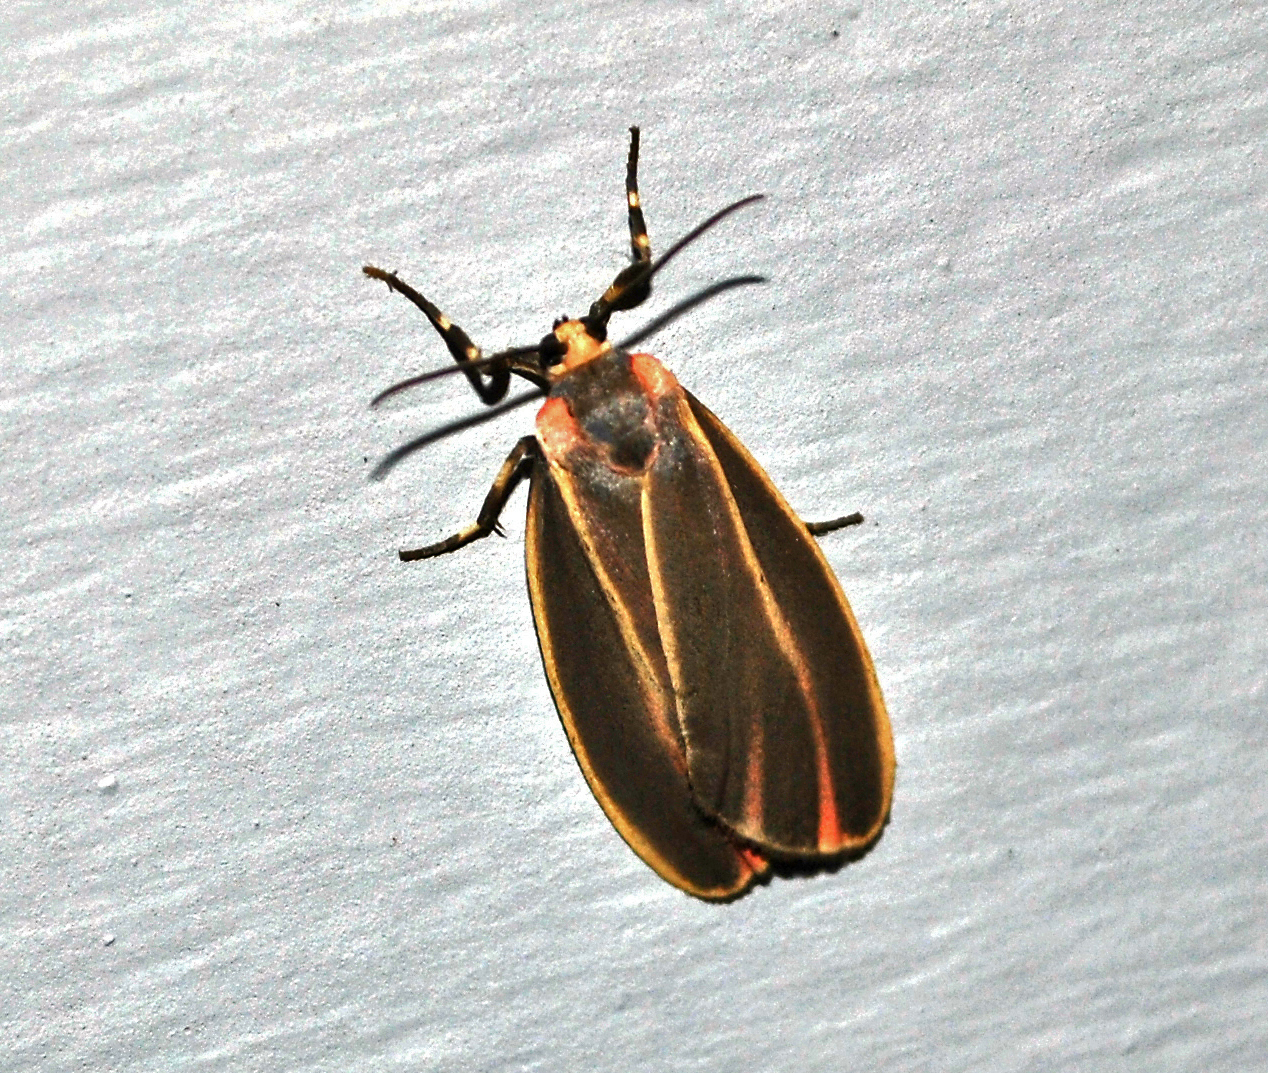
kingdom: Animalia
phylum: Arthropoda
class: Insecta
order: Lepidoptera
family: Erebidae
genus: Hypoprepia
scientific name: Hypoprepia fucosa
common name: Painted lichen moth
